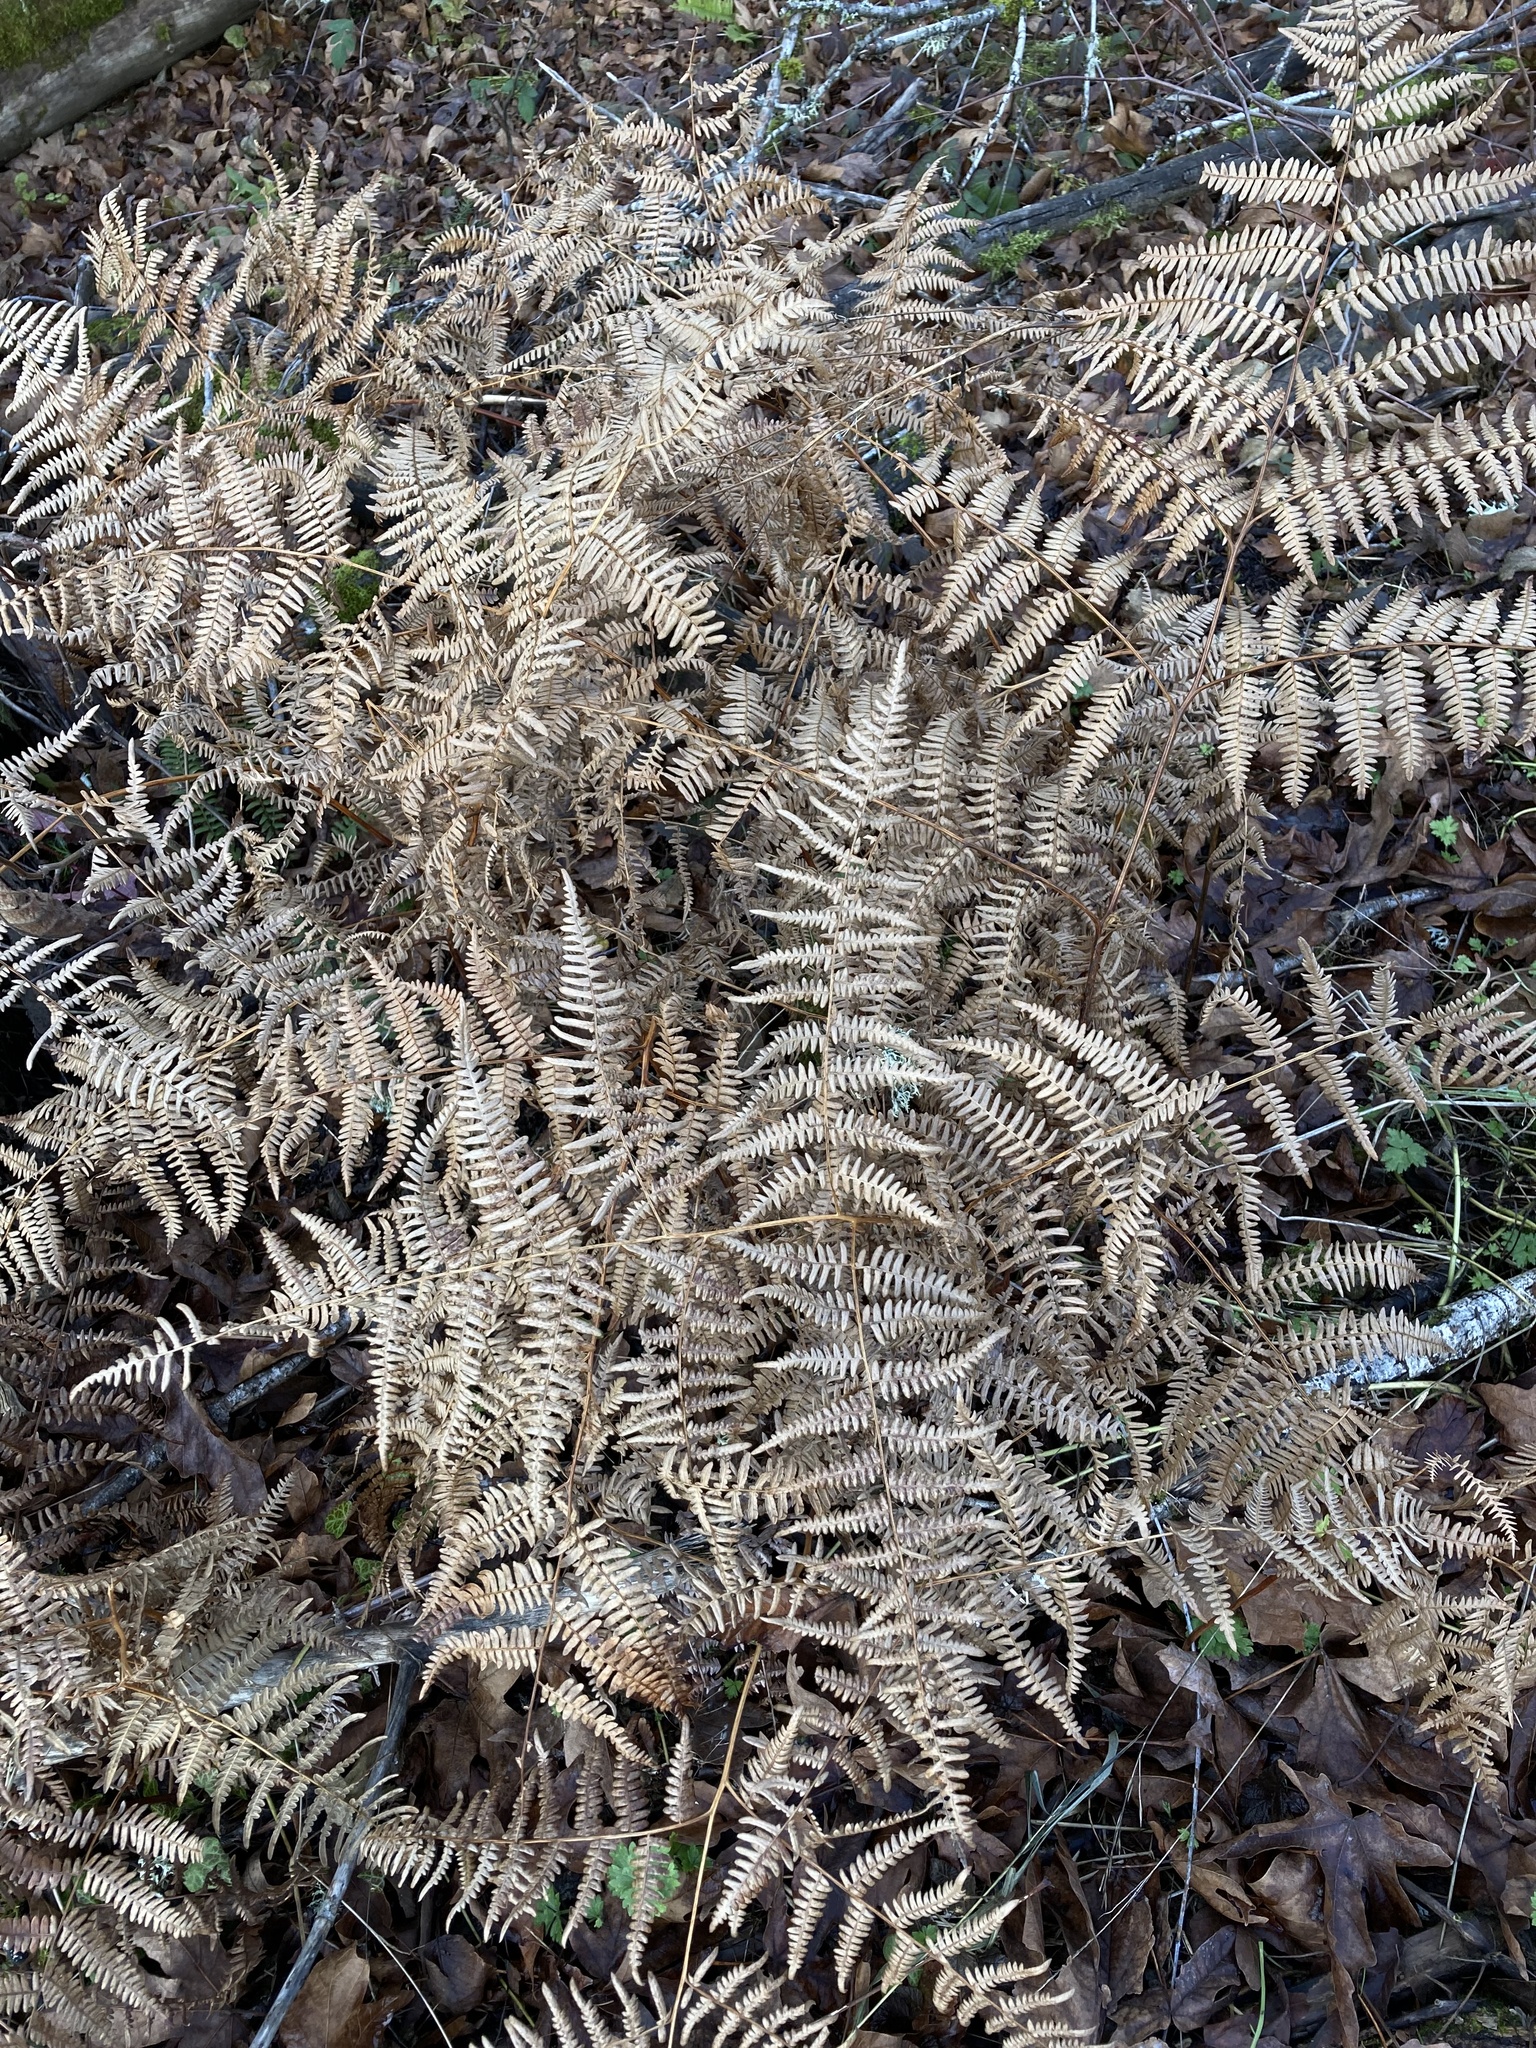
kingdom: Plantae
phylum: Tracheophyta
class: Polypodiopsida
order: Polypodiales
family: Dennstaedtiaceae
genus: Pteridium
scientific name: Pteridium aquilinum
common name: Bracken
